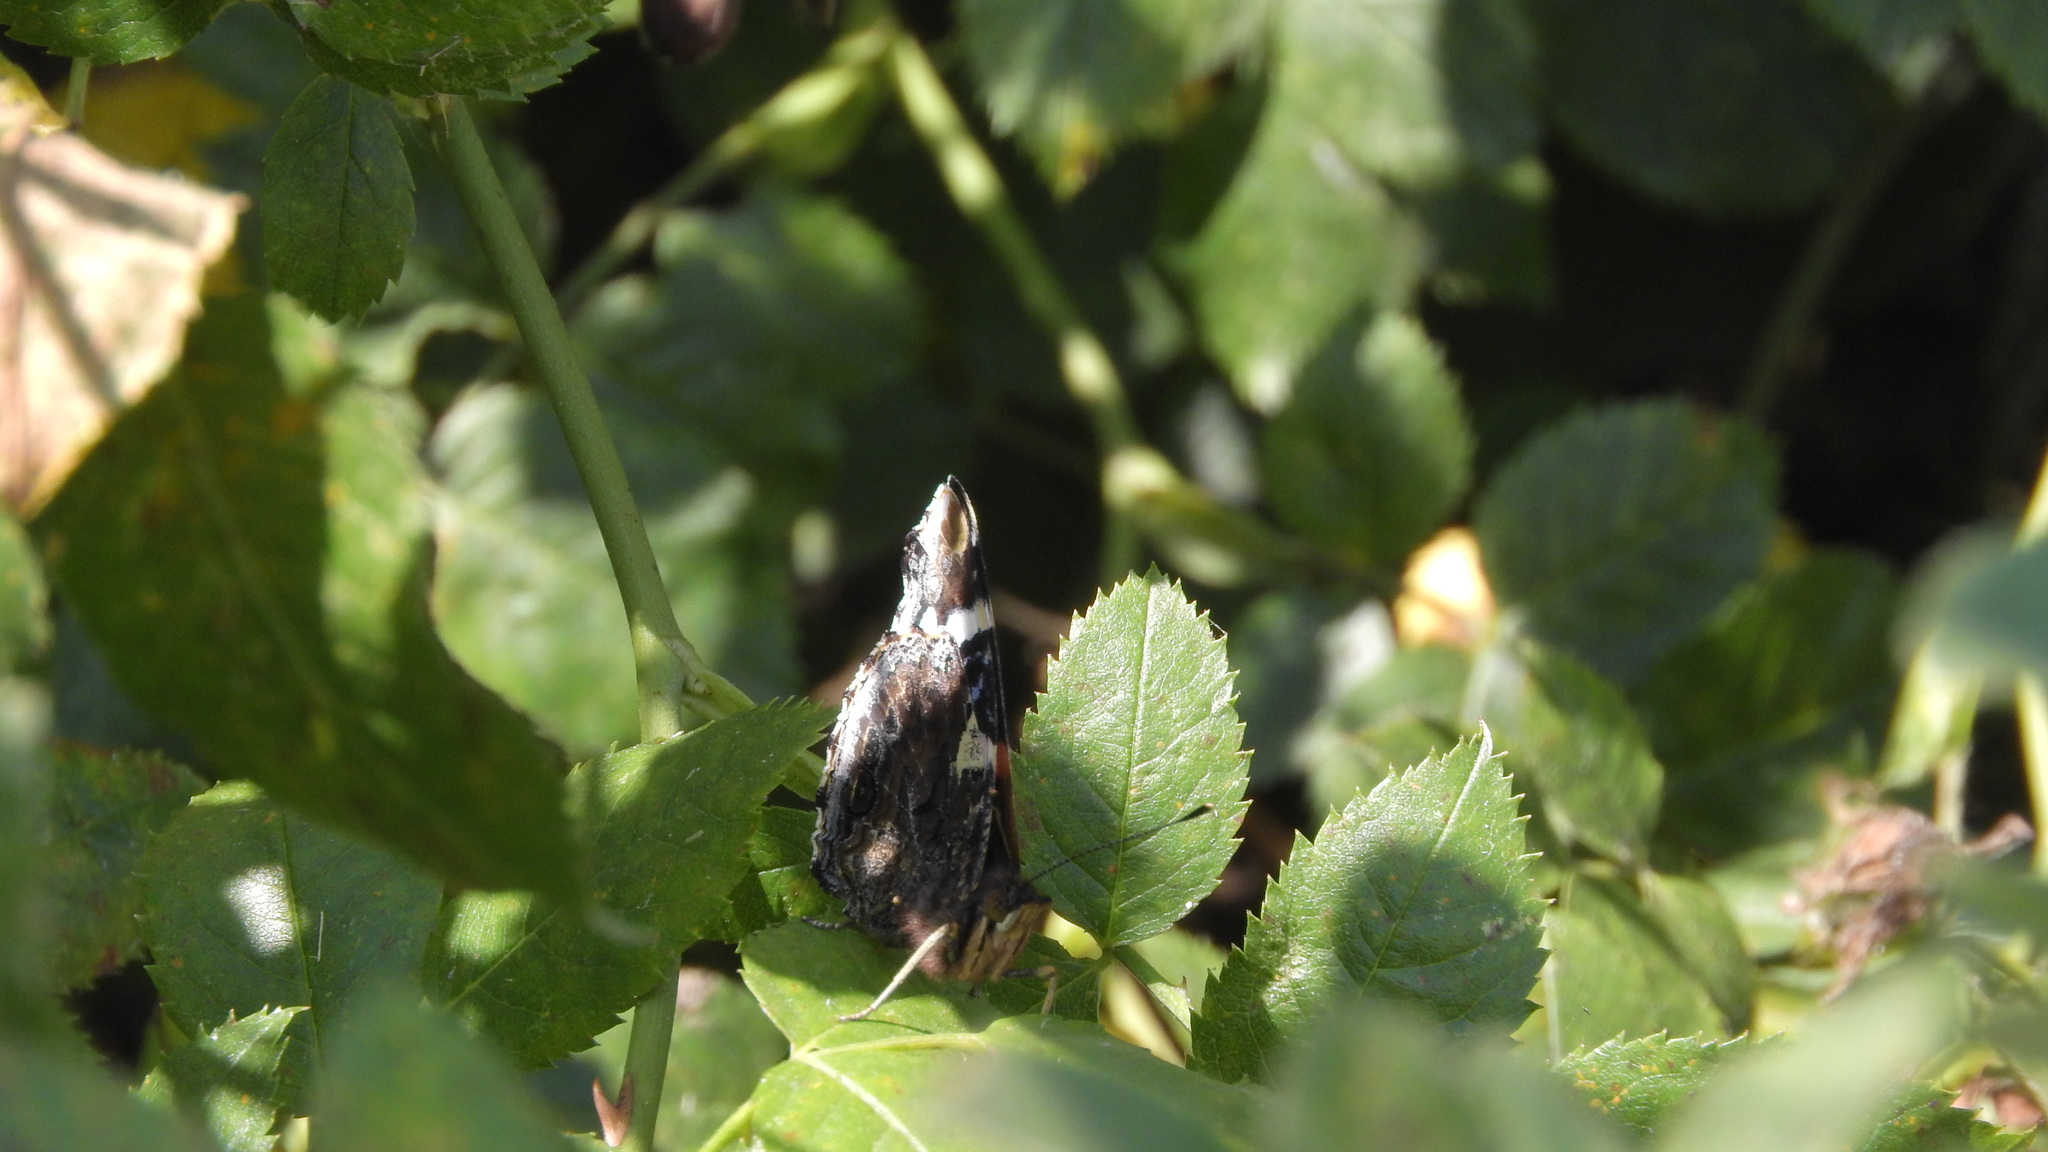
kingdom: Animalia
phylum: Arthropoda
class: Insecta
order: Lepidoptera
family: Nymphalidae
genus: Vanessa
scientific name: Vanessa atalanta
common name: Red admiral
